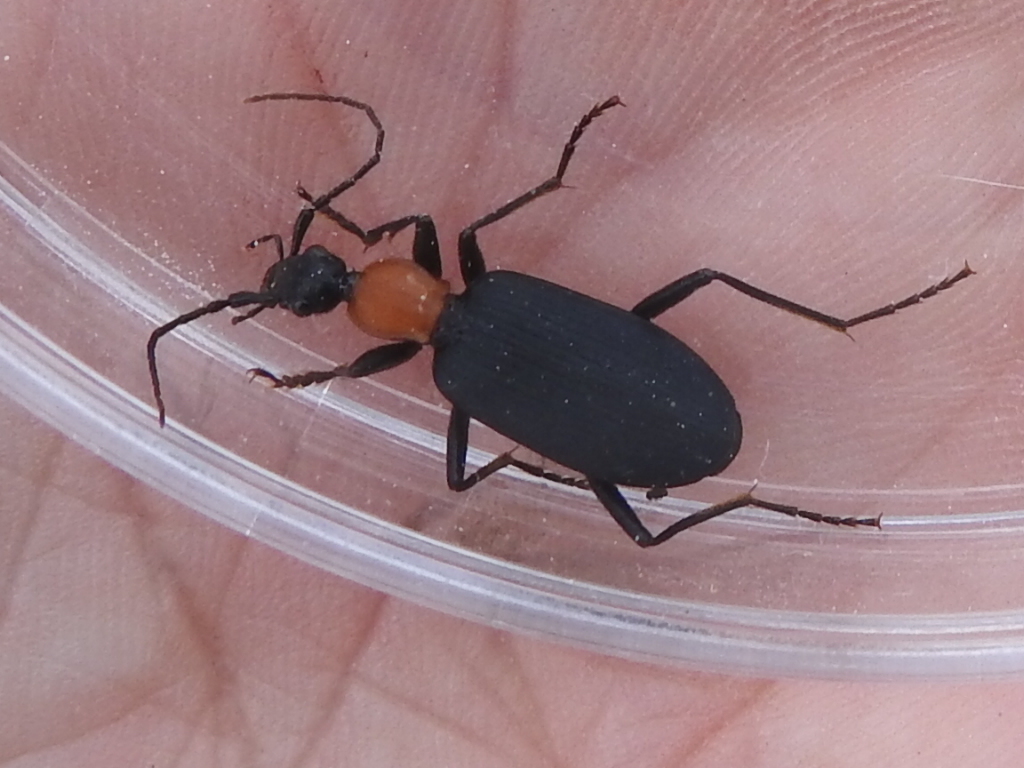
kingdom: Animalia
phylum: Arthropoda
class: Insecta
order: Coleoptera
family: Carabidae
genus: Galerita
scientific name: Galerita bicolor
